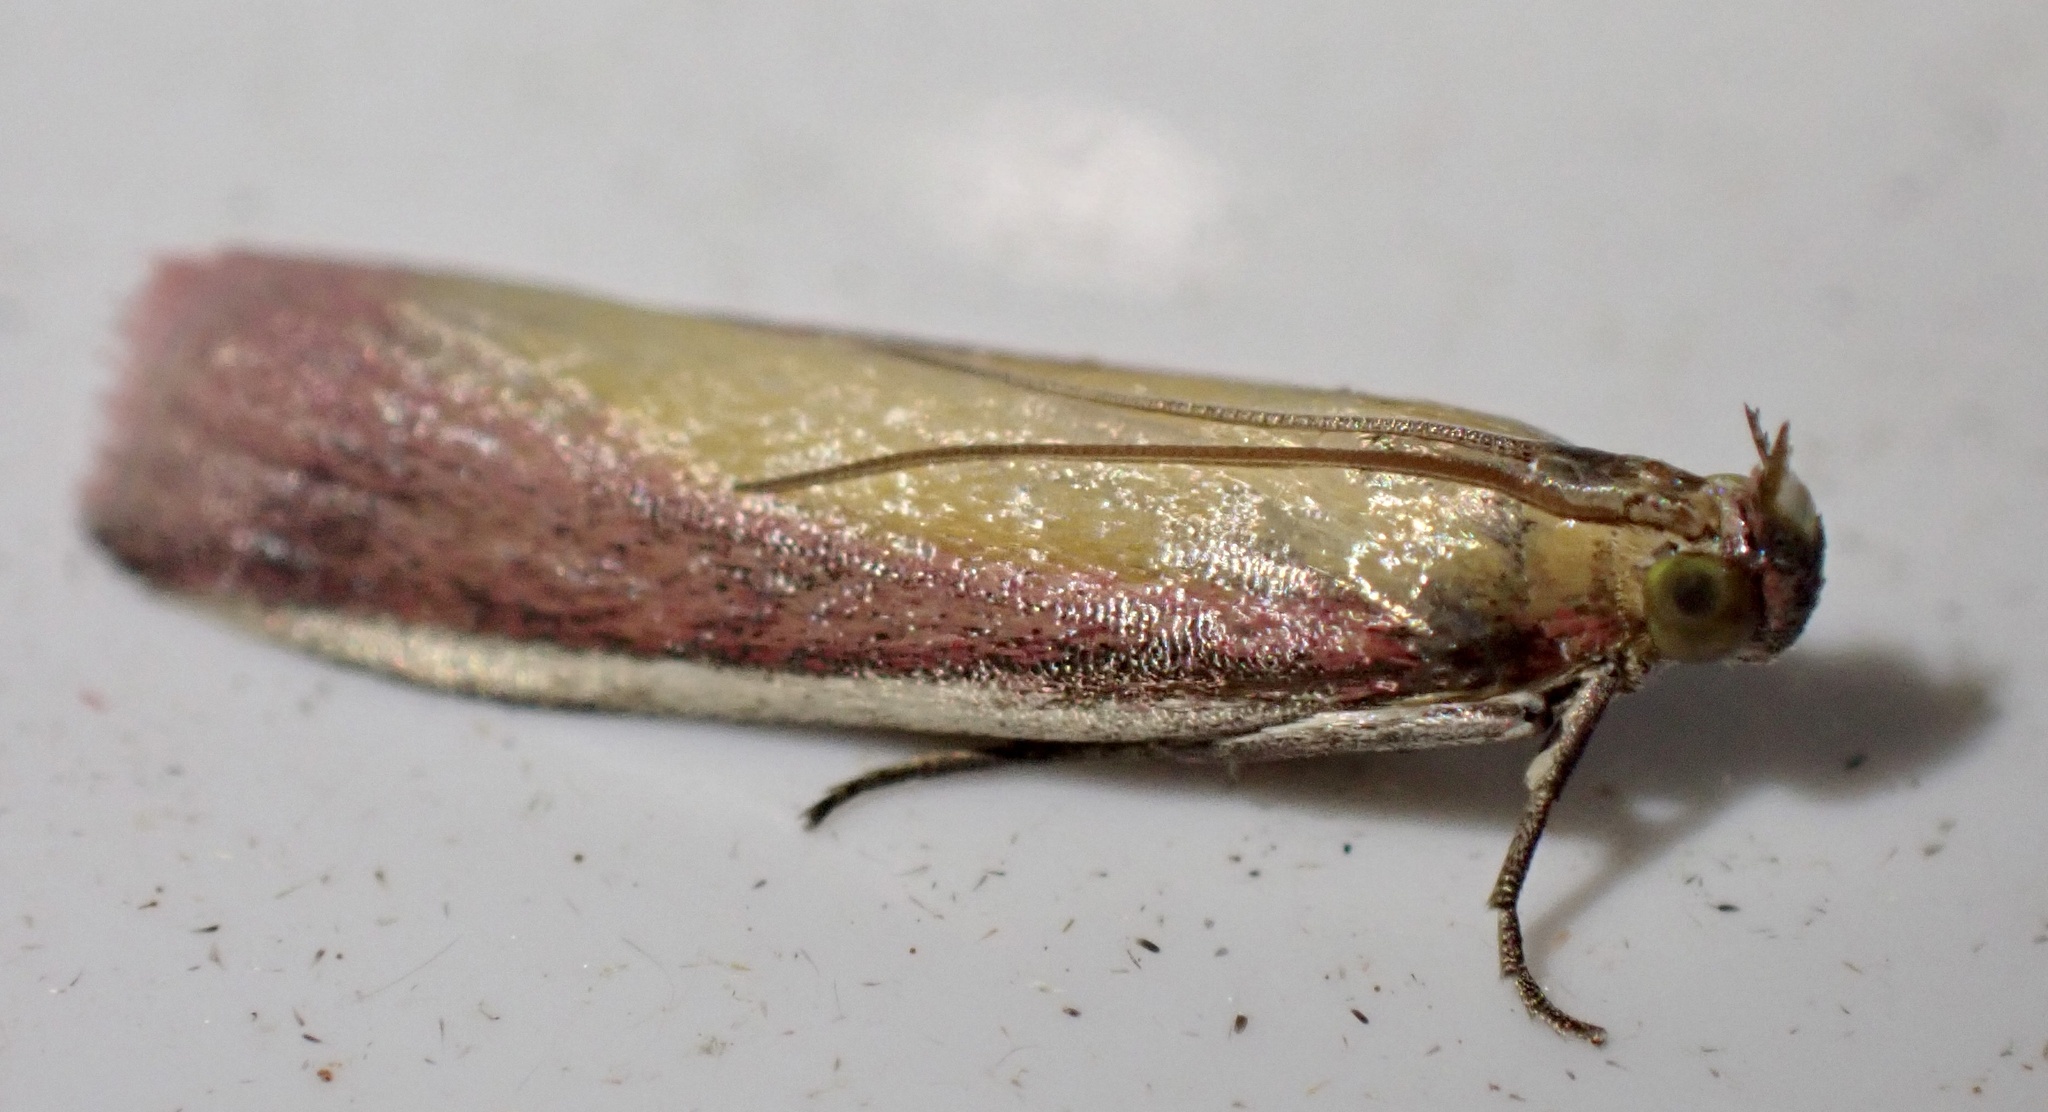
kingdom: Animalia
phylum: Arthropoda
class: Insecta
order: Lepidoptera
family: Pyralidae
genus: Oncocera
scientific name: Oncocera semirubella
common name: Rosy-striped knot-horn
